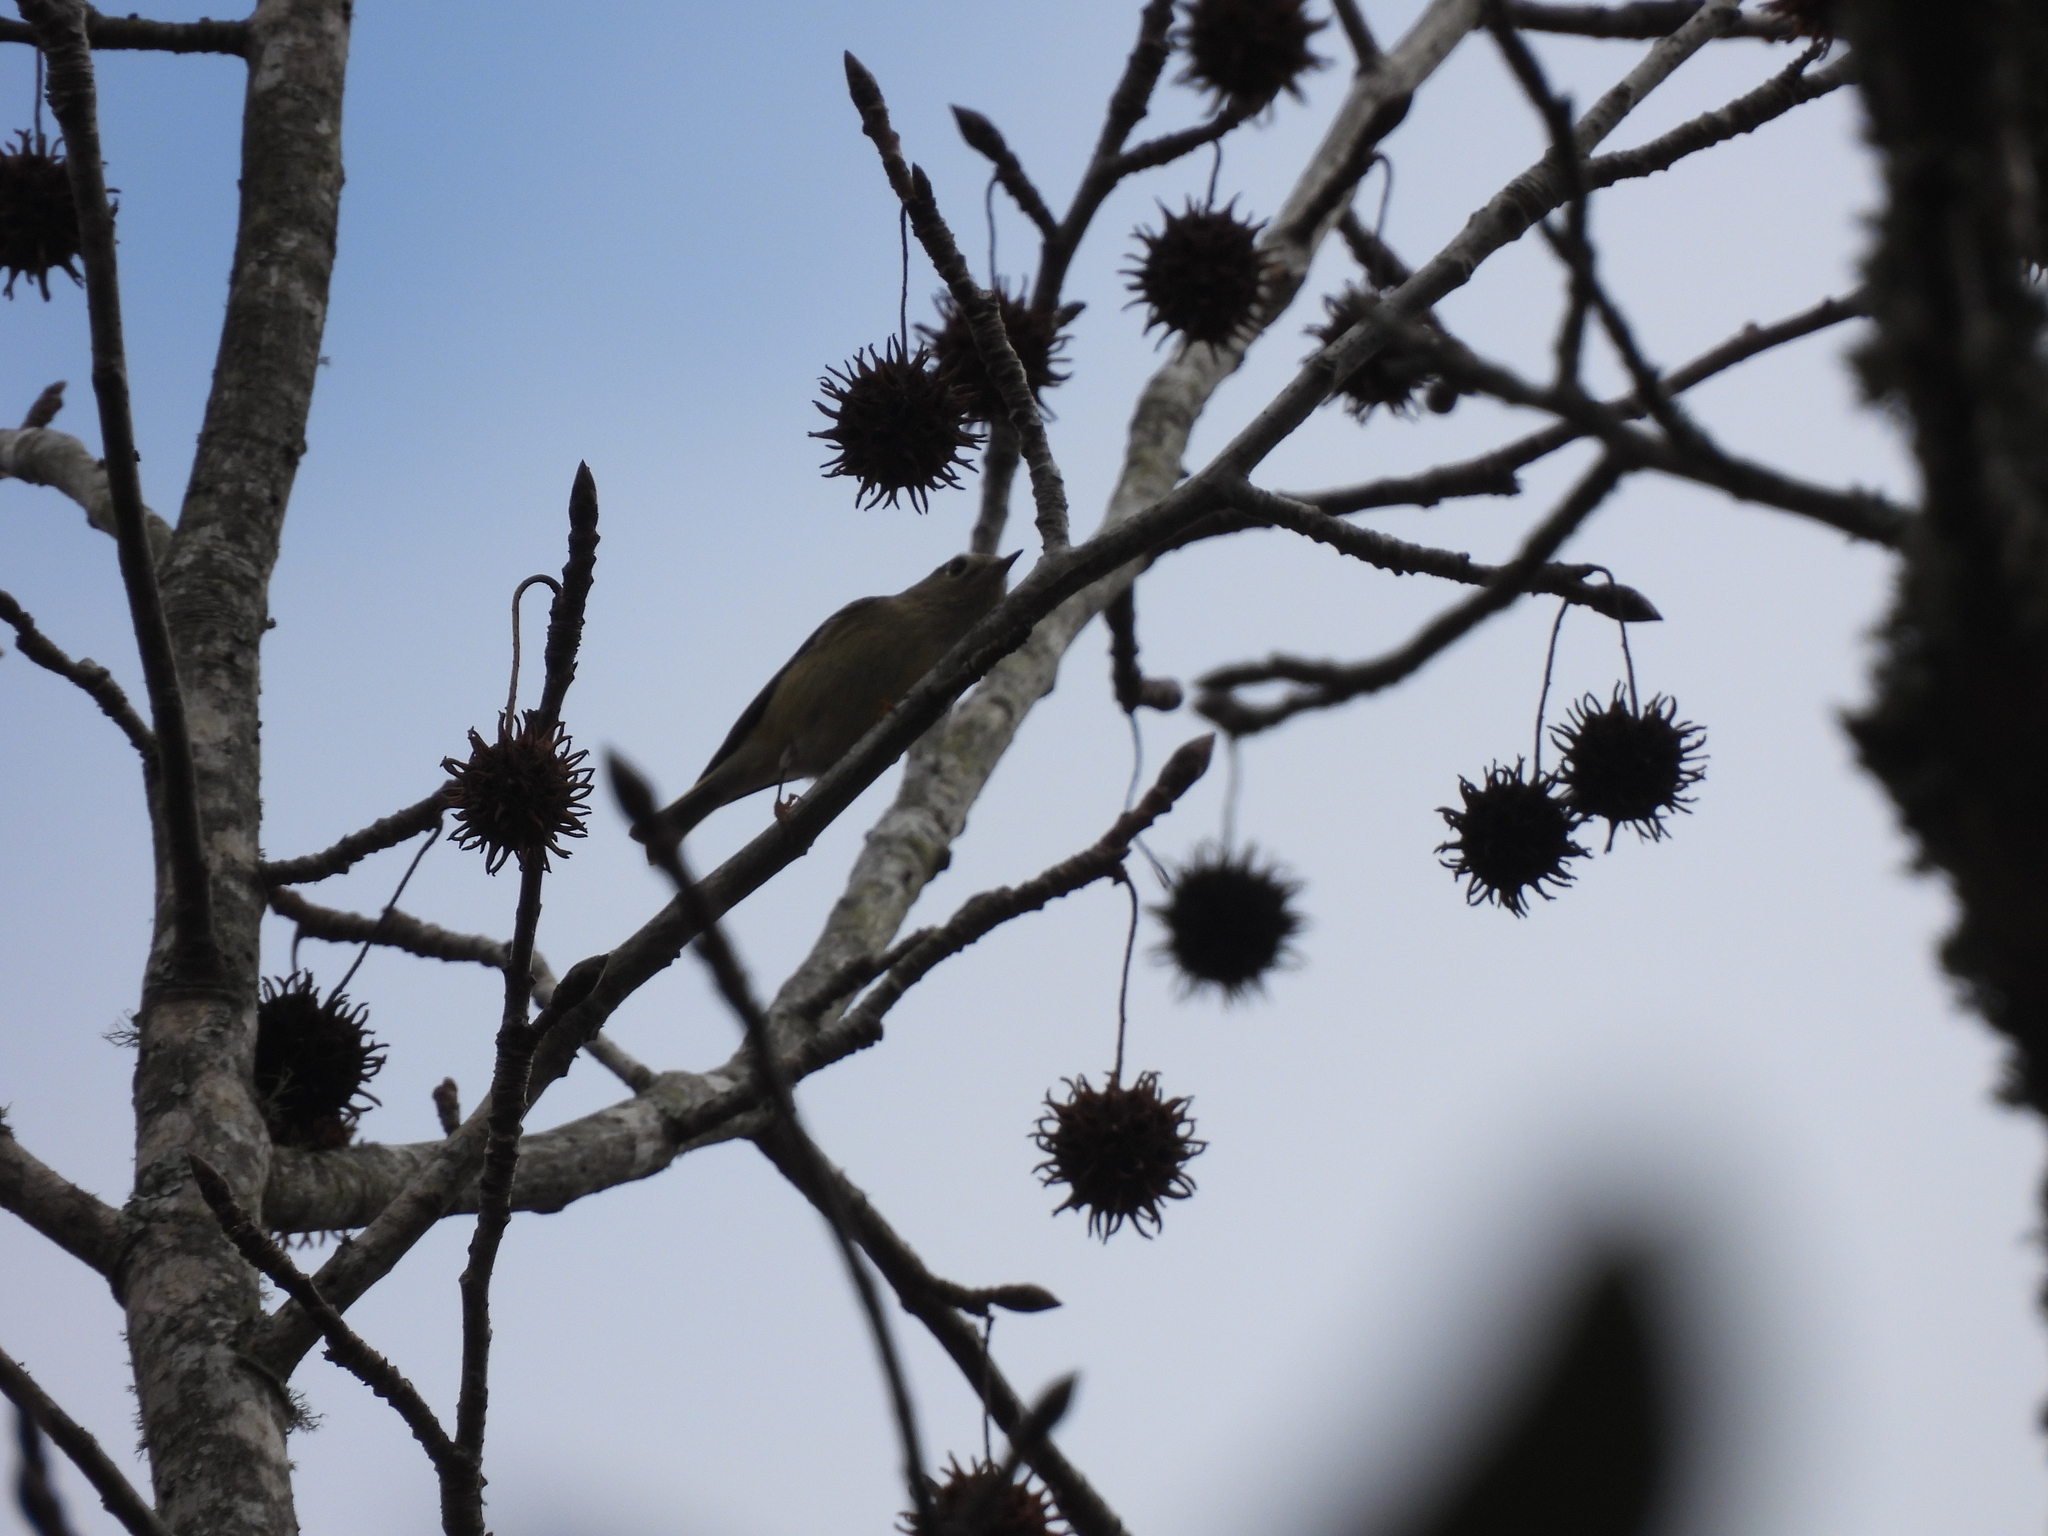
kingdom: Animalia
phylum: Chordata
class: Aves
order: Passeriformes
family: Regulidae
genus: Regulus
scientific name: Regulus calendula
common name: Ruby-crowned kinglet
